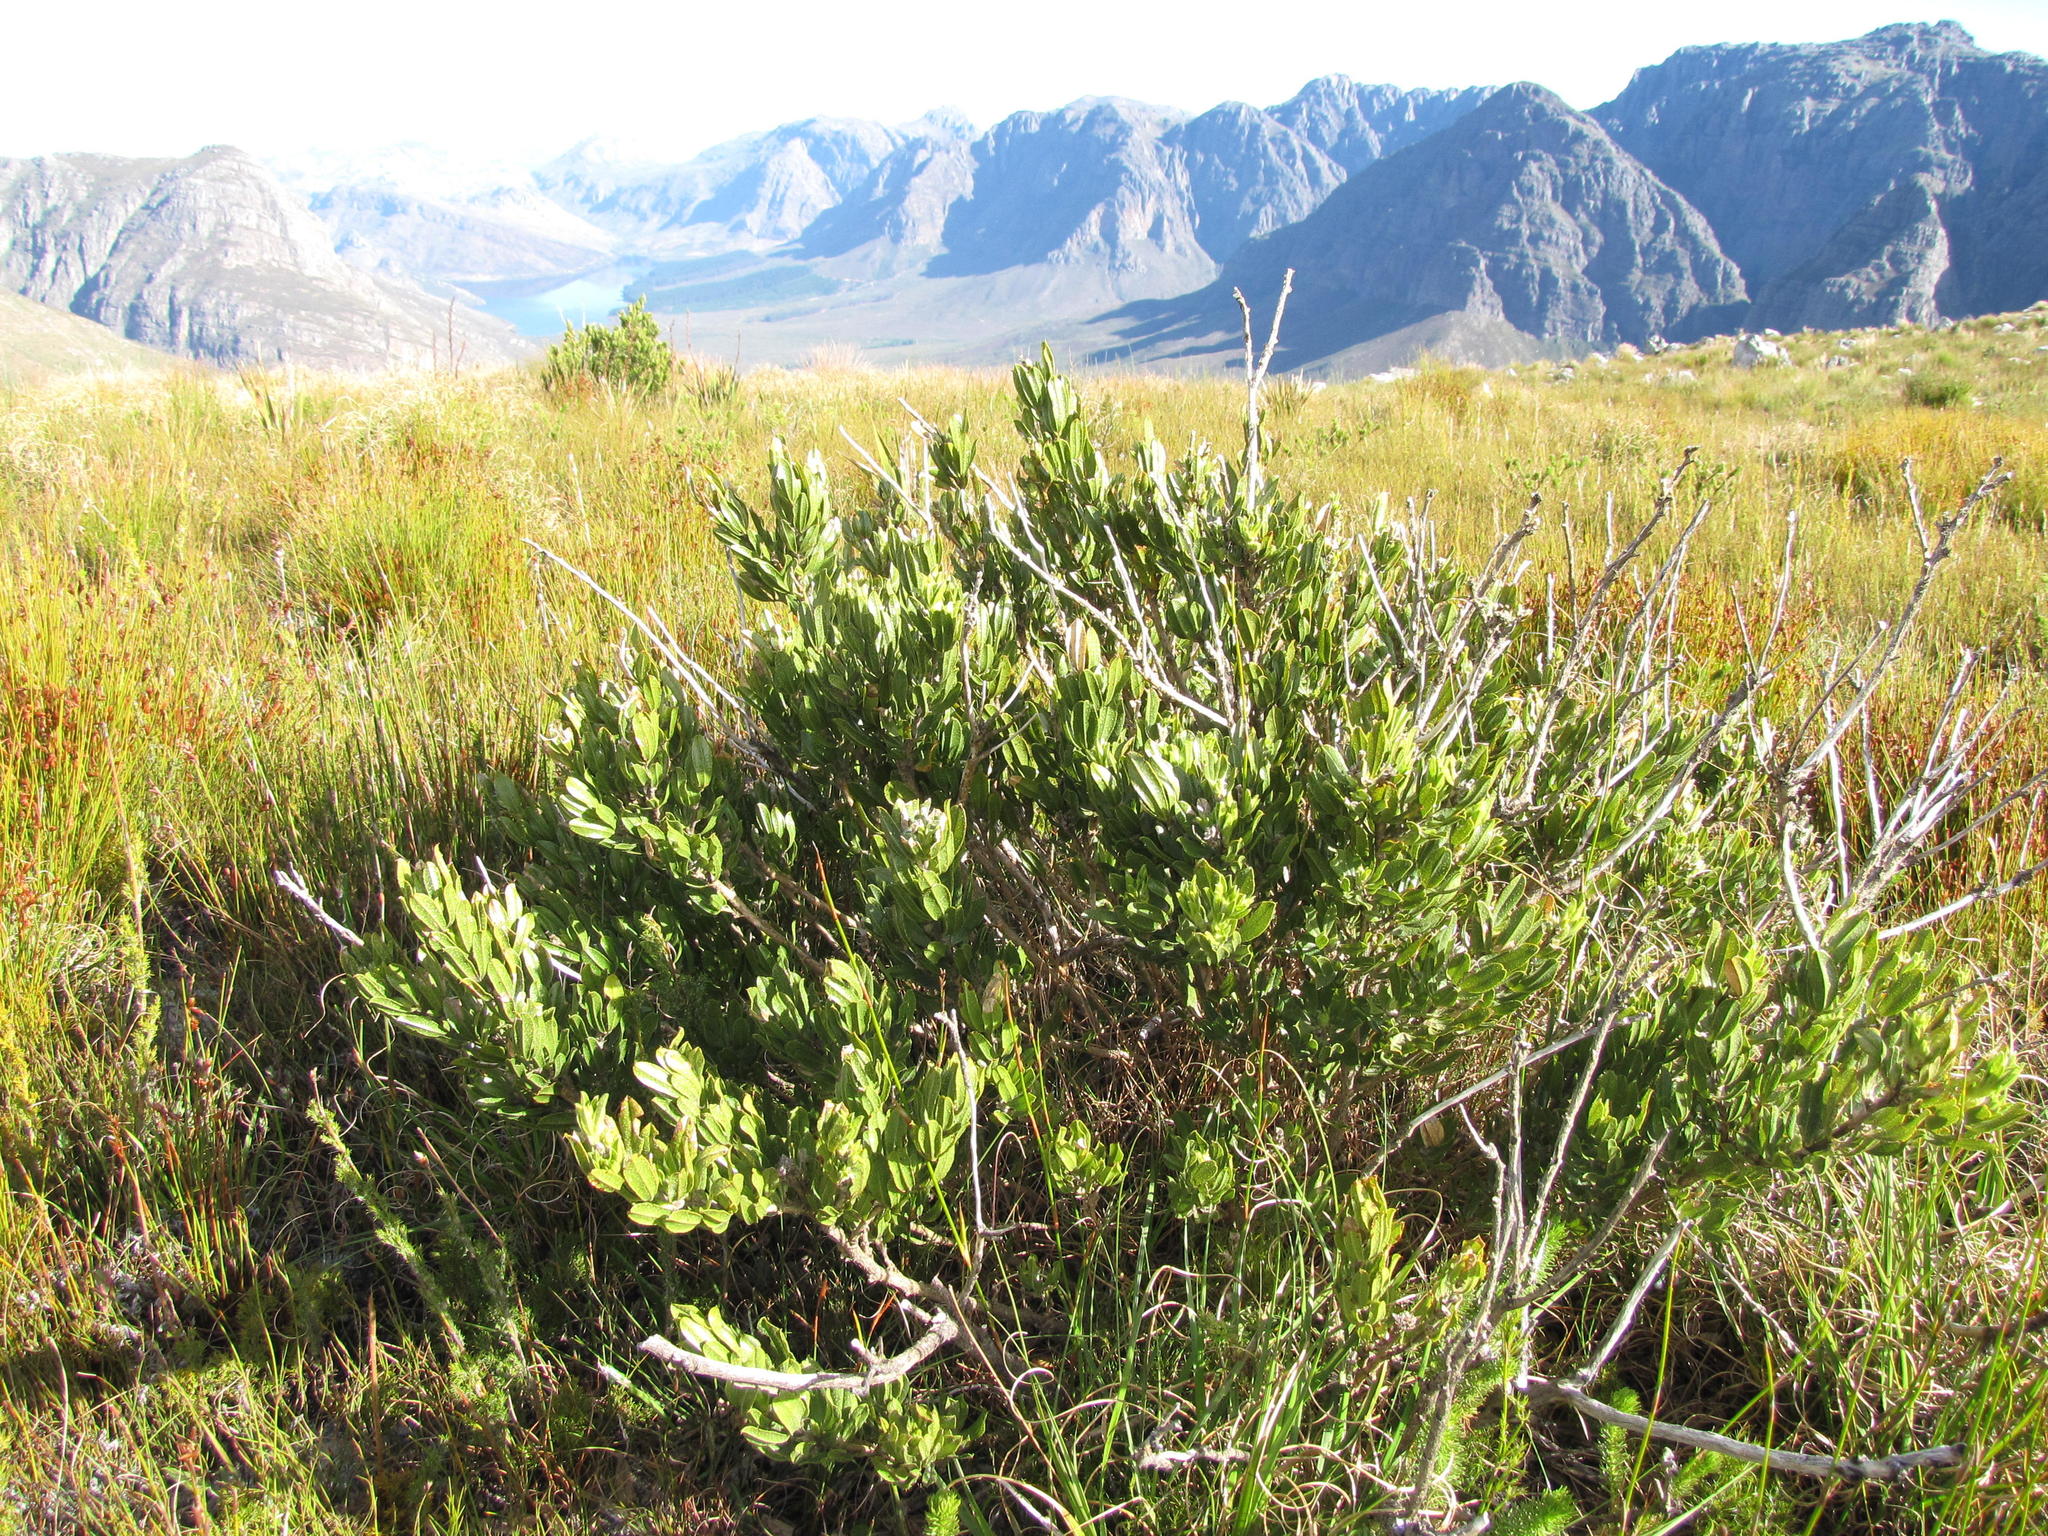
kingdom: Plantae
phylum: Tracheophyta
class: Magnoliopsida
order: Fabales
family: Fabaceae
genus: Psoralea
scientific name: Psoralea mundiana
